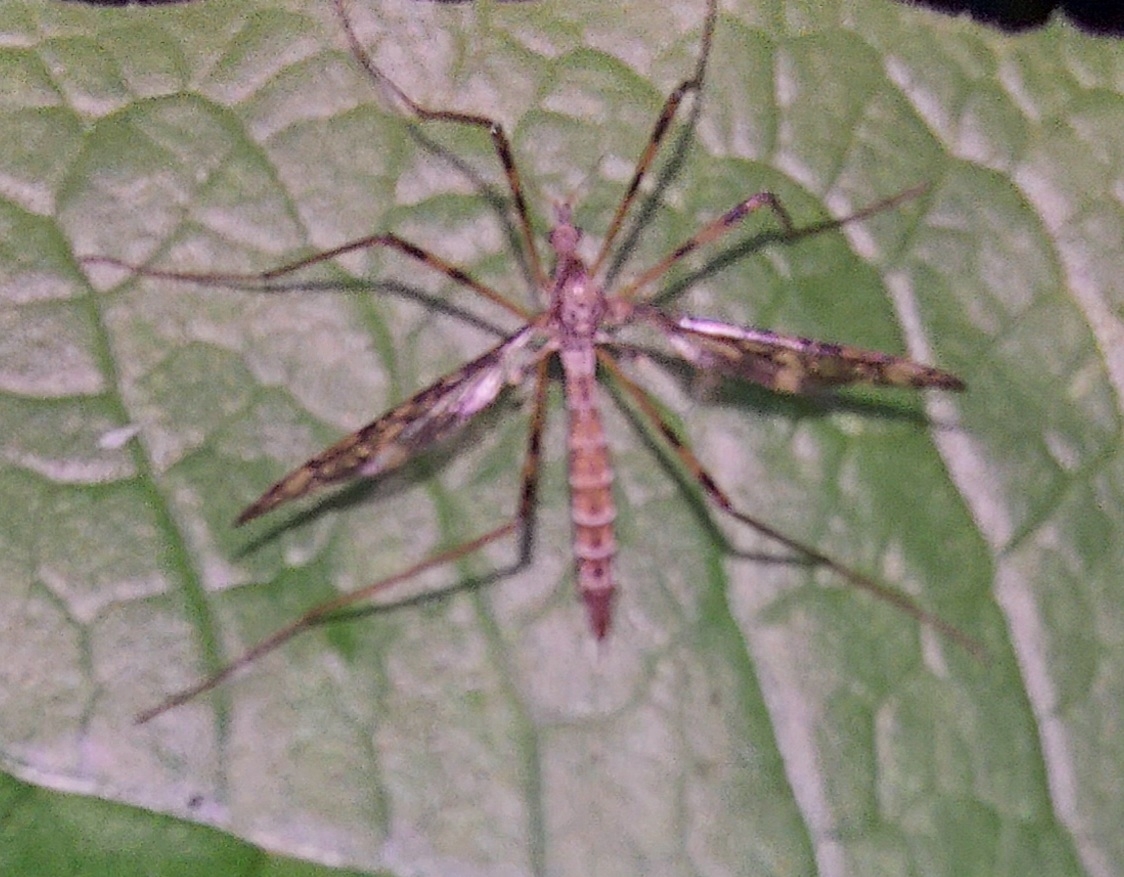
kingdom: Animalia
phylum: Arthropoda
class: Insecta
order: Diptera
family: Limoniidae
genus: Epiphragma
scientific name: Epiphragma ocellare
